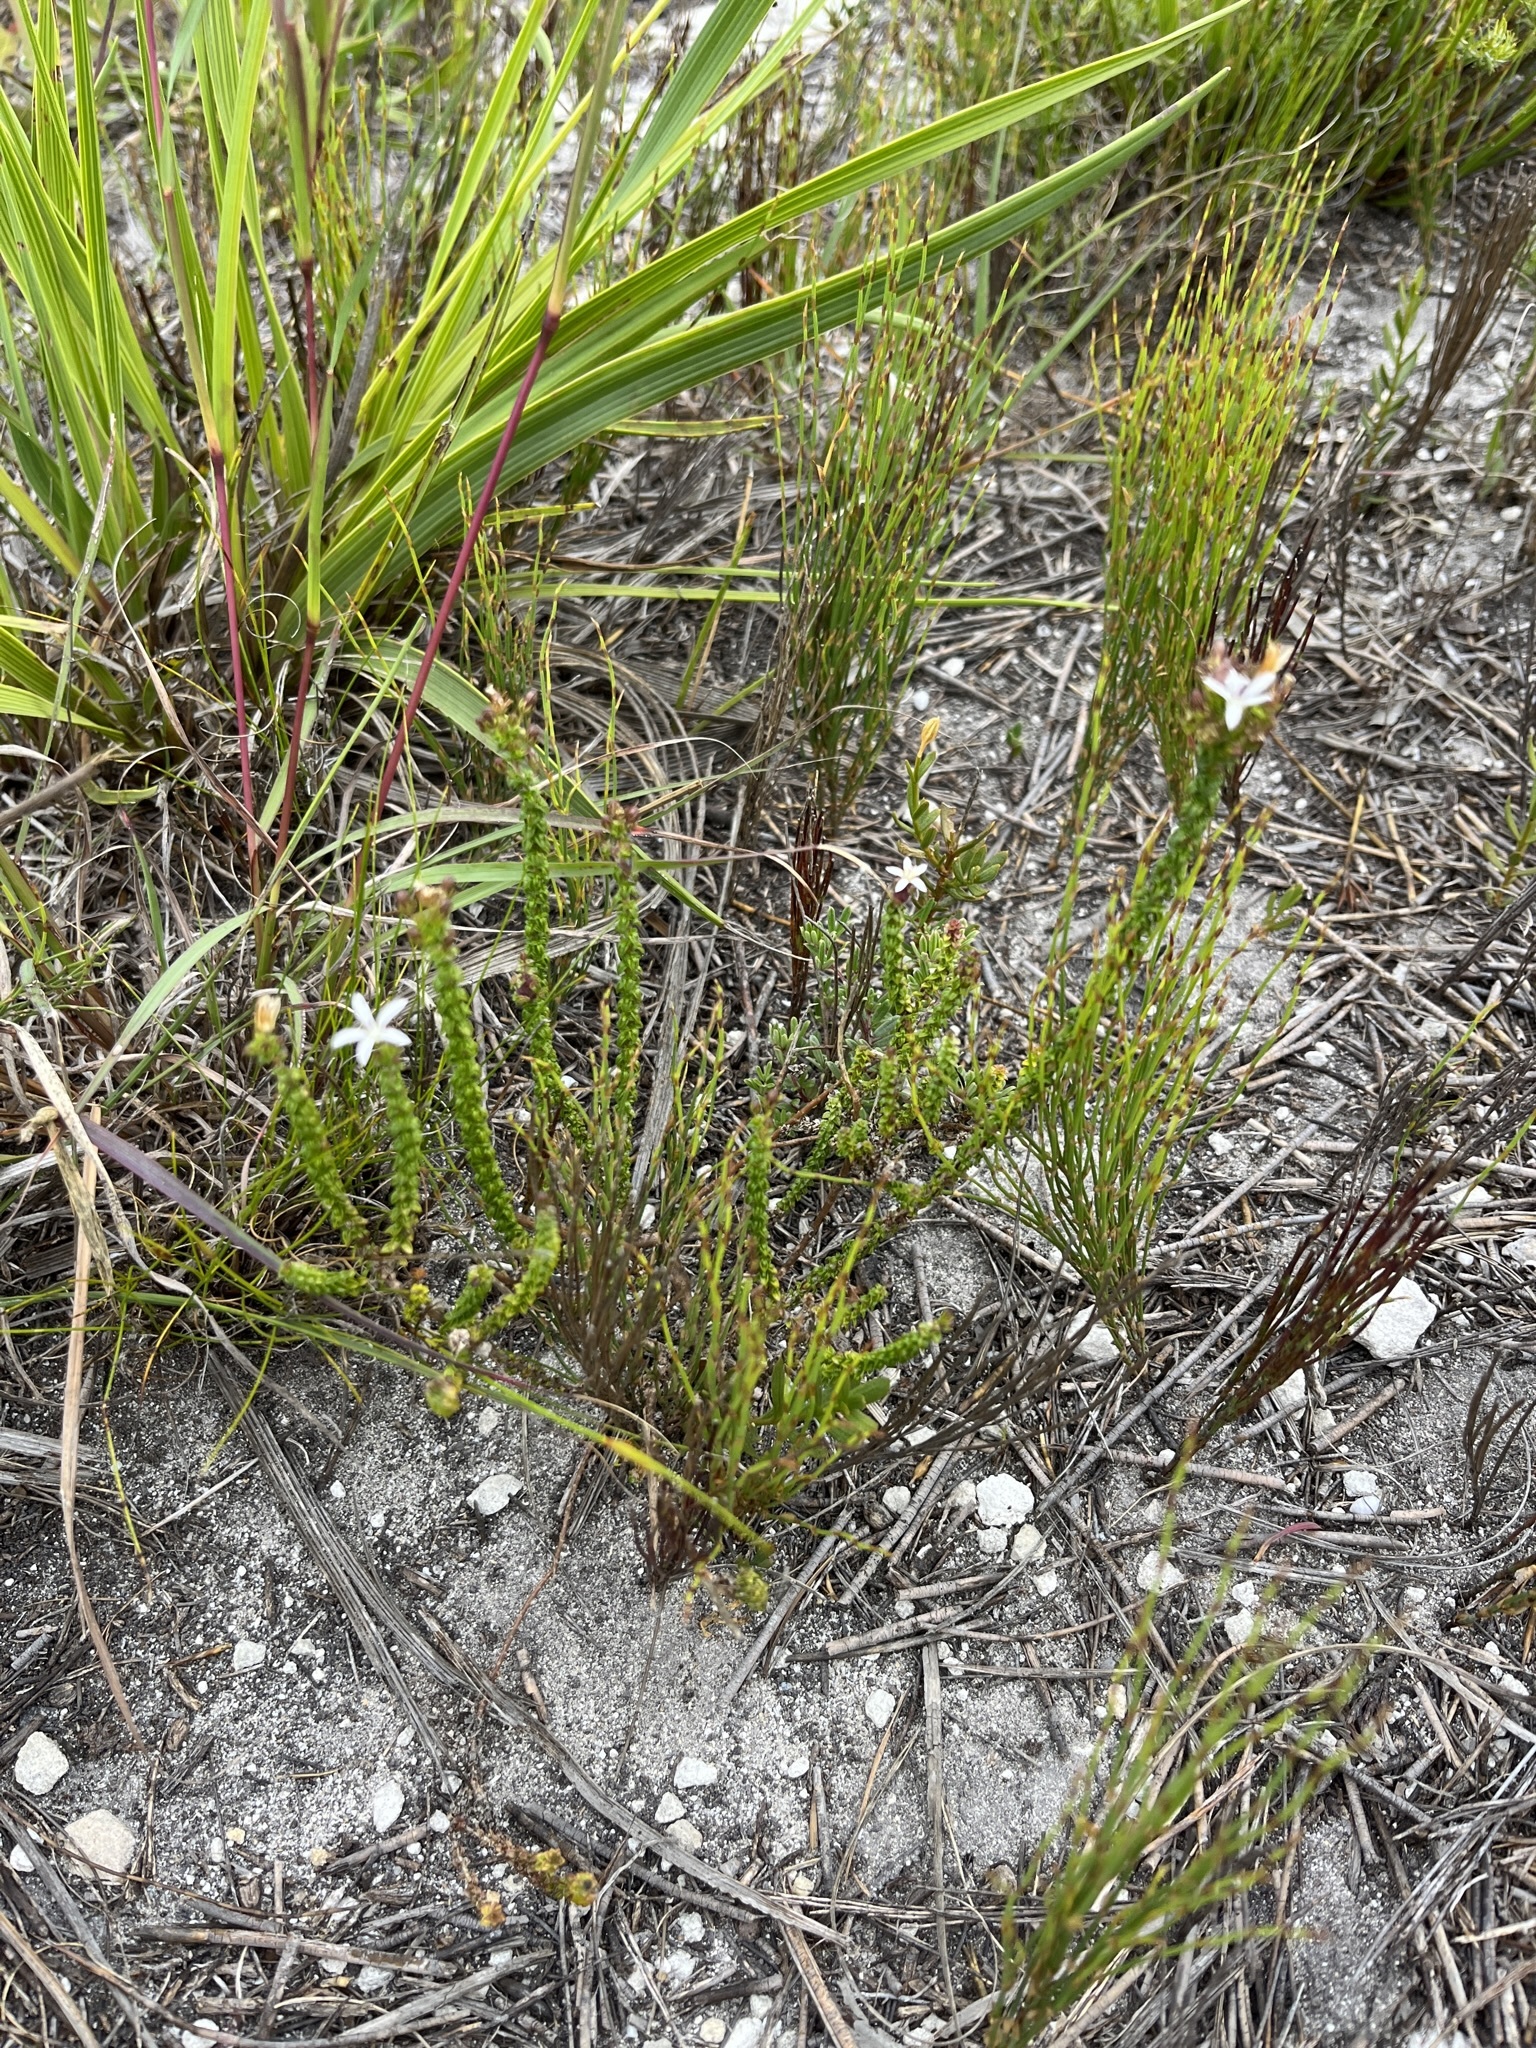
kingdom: Plantae
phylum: Tracheophyta
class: Magnoliopsida
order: Asterales
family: Campanulaceae
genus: Wahlenbergia
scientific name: Wahlenbergia tenella
